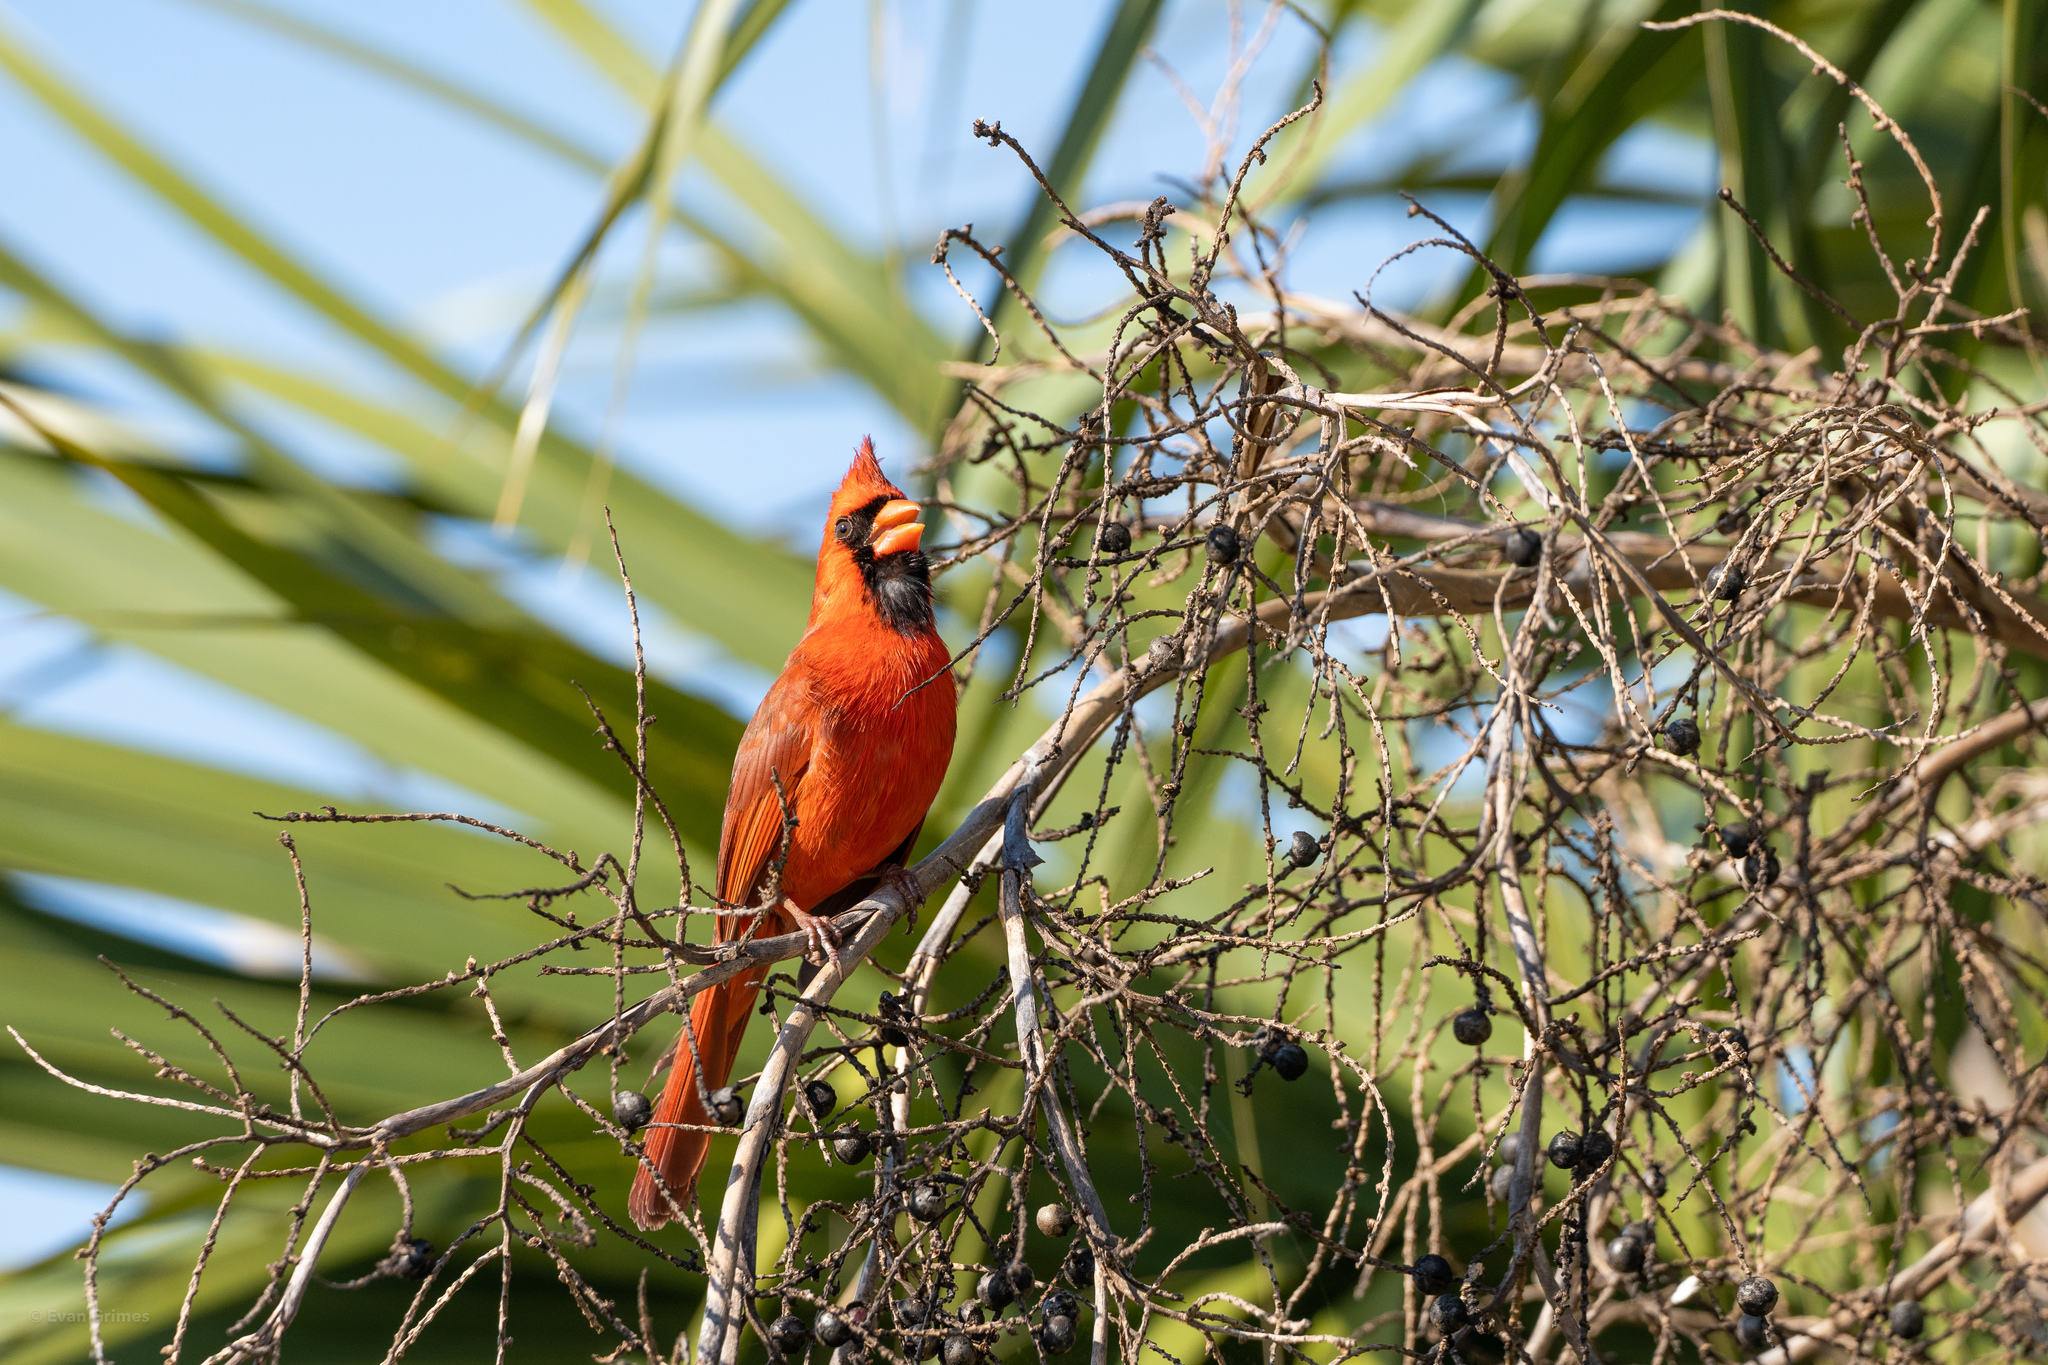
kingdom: Animalia
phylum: Chordata
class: Aves
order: Passeriformes
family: Cardinalidae
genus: Cardinalis
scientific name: Cardinalis cardinalis
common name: Northern cardinal
